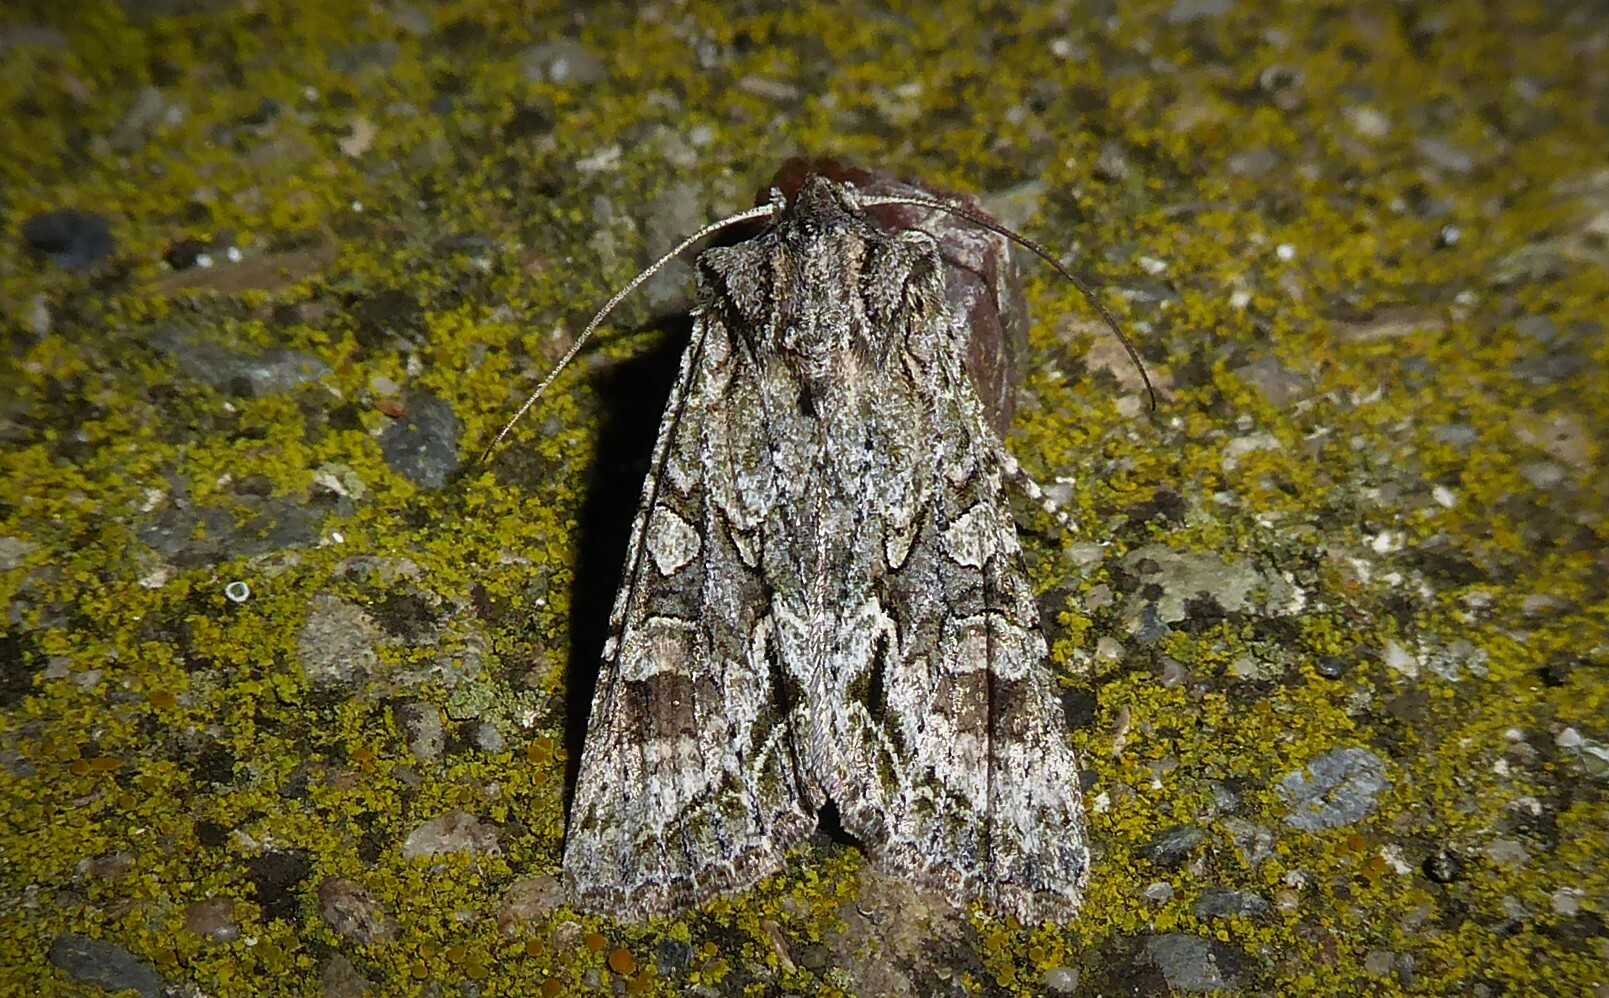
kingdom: Animalia
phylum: Arthropoda
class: Insecta
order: Lepidoptera
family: Noctuidae
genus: Ichneutica
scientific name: Ichneutica mutans
